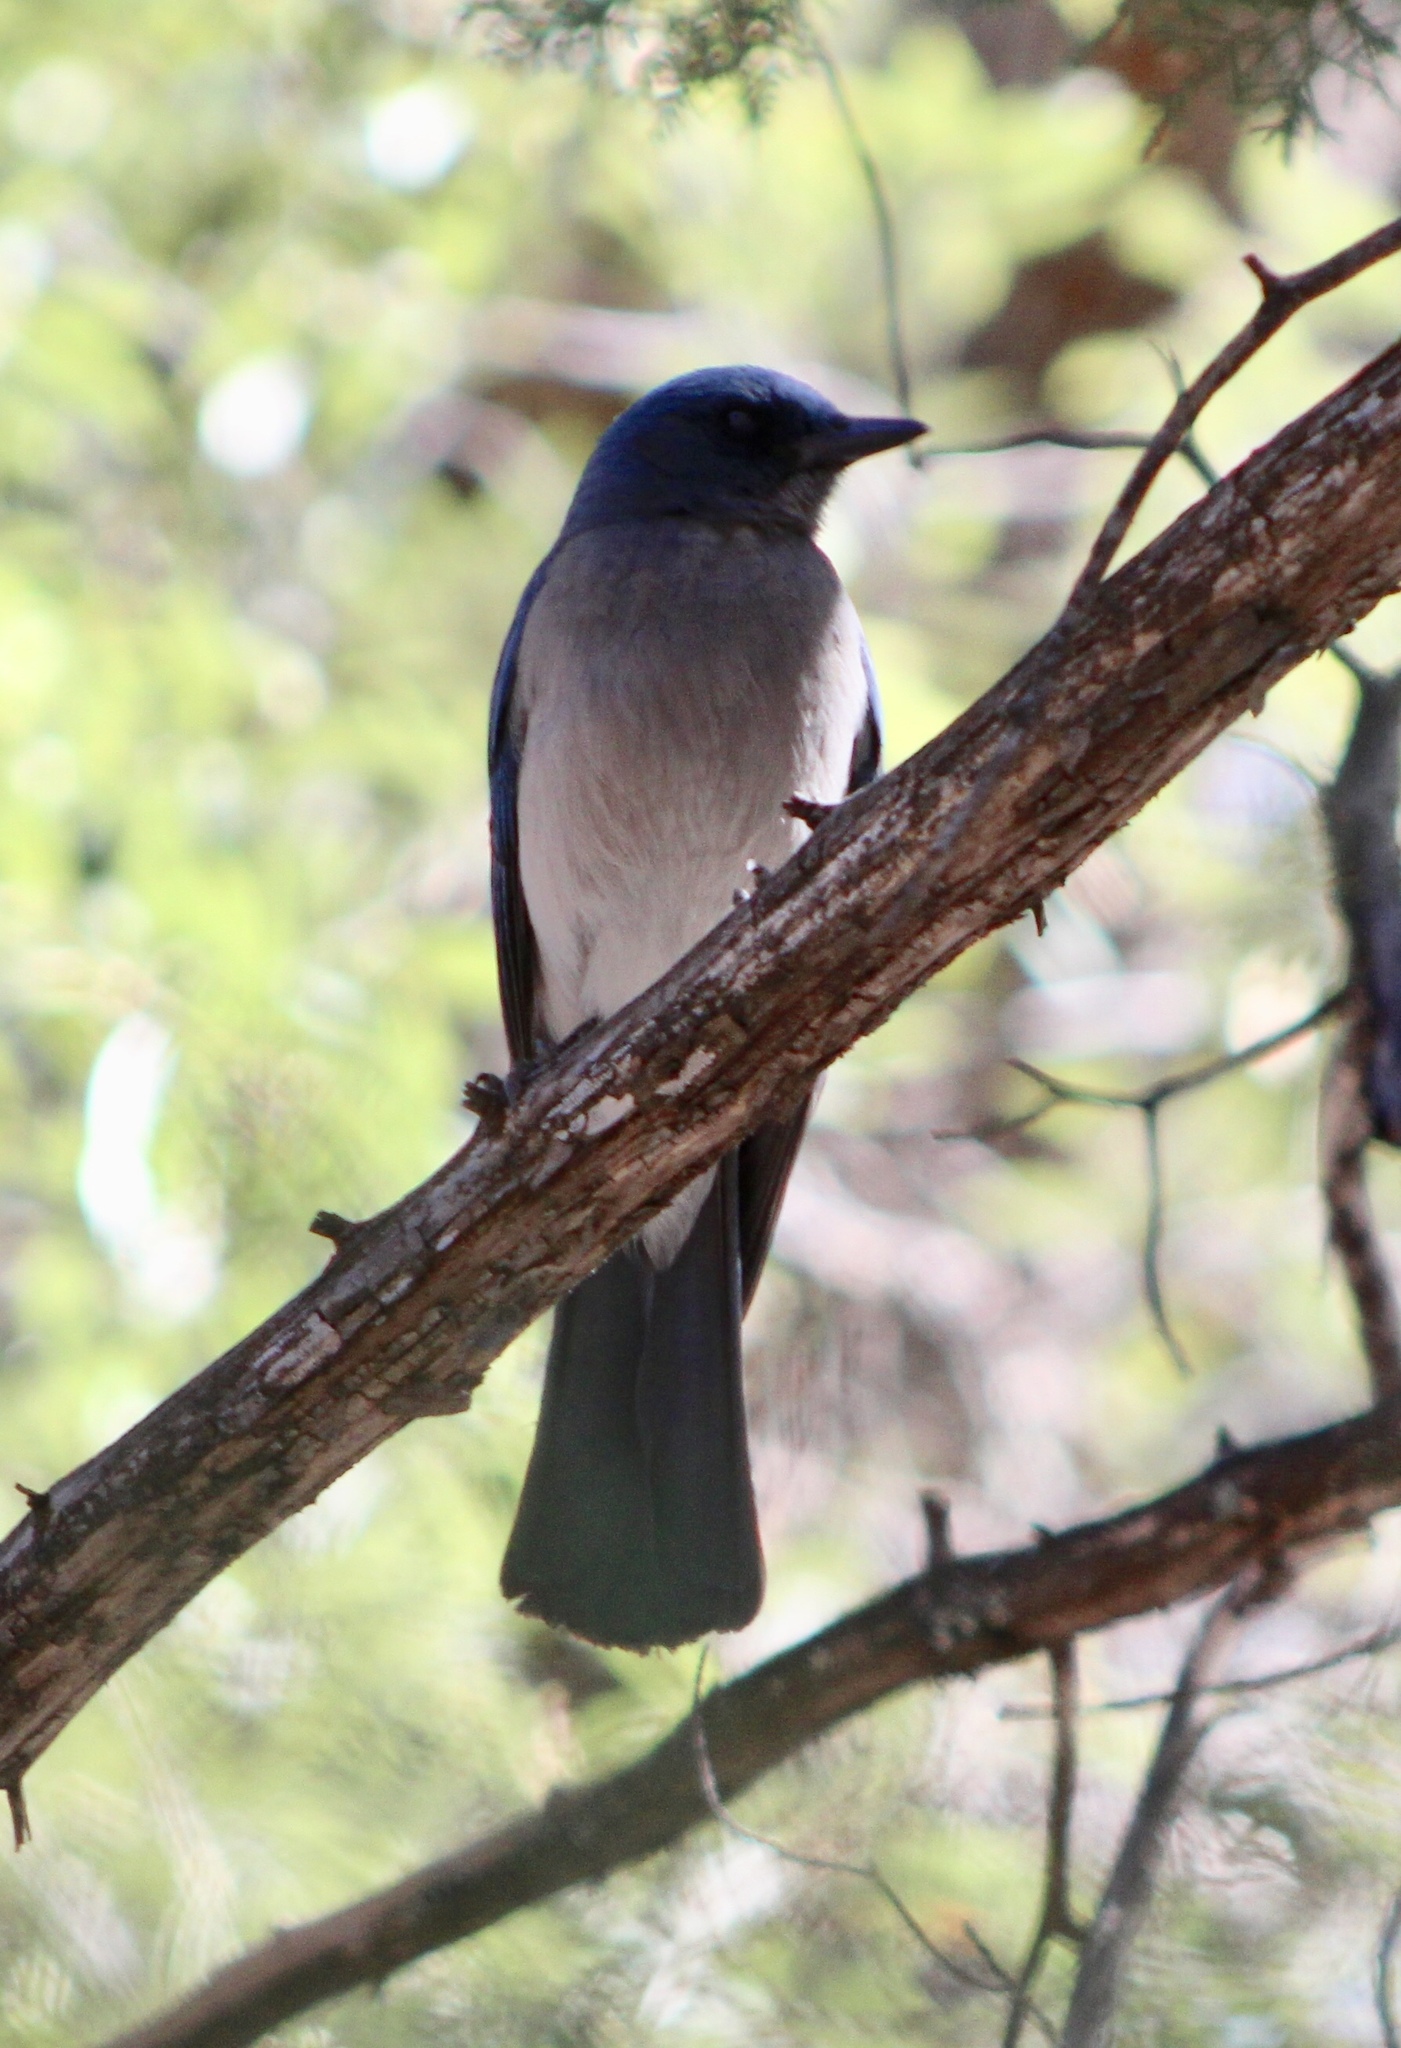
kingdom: Animalia
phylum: Chordata
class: Aves
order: Passeriformes
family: Corvidae
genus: Aphelocoma
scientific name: Aphelocoma wollweberi
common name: Mexican jay
